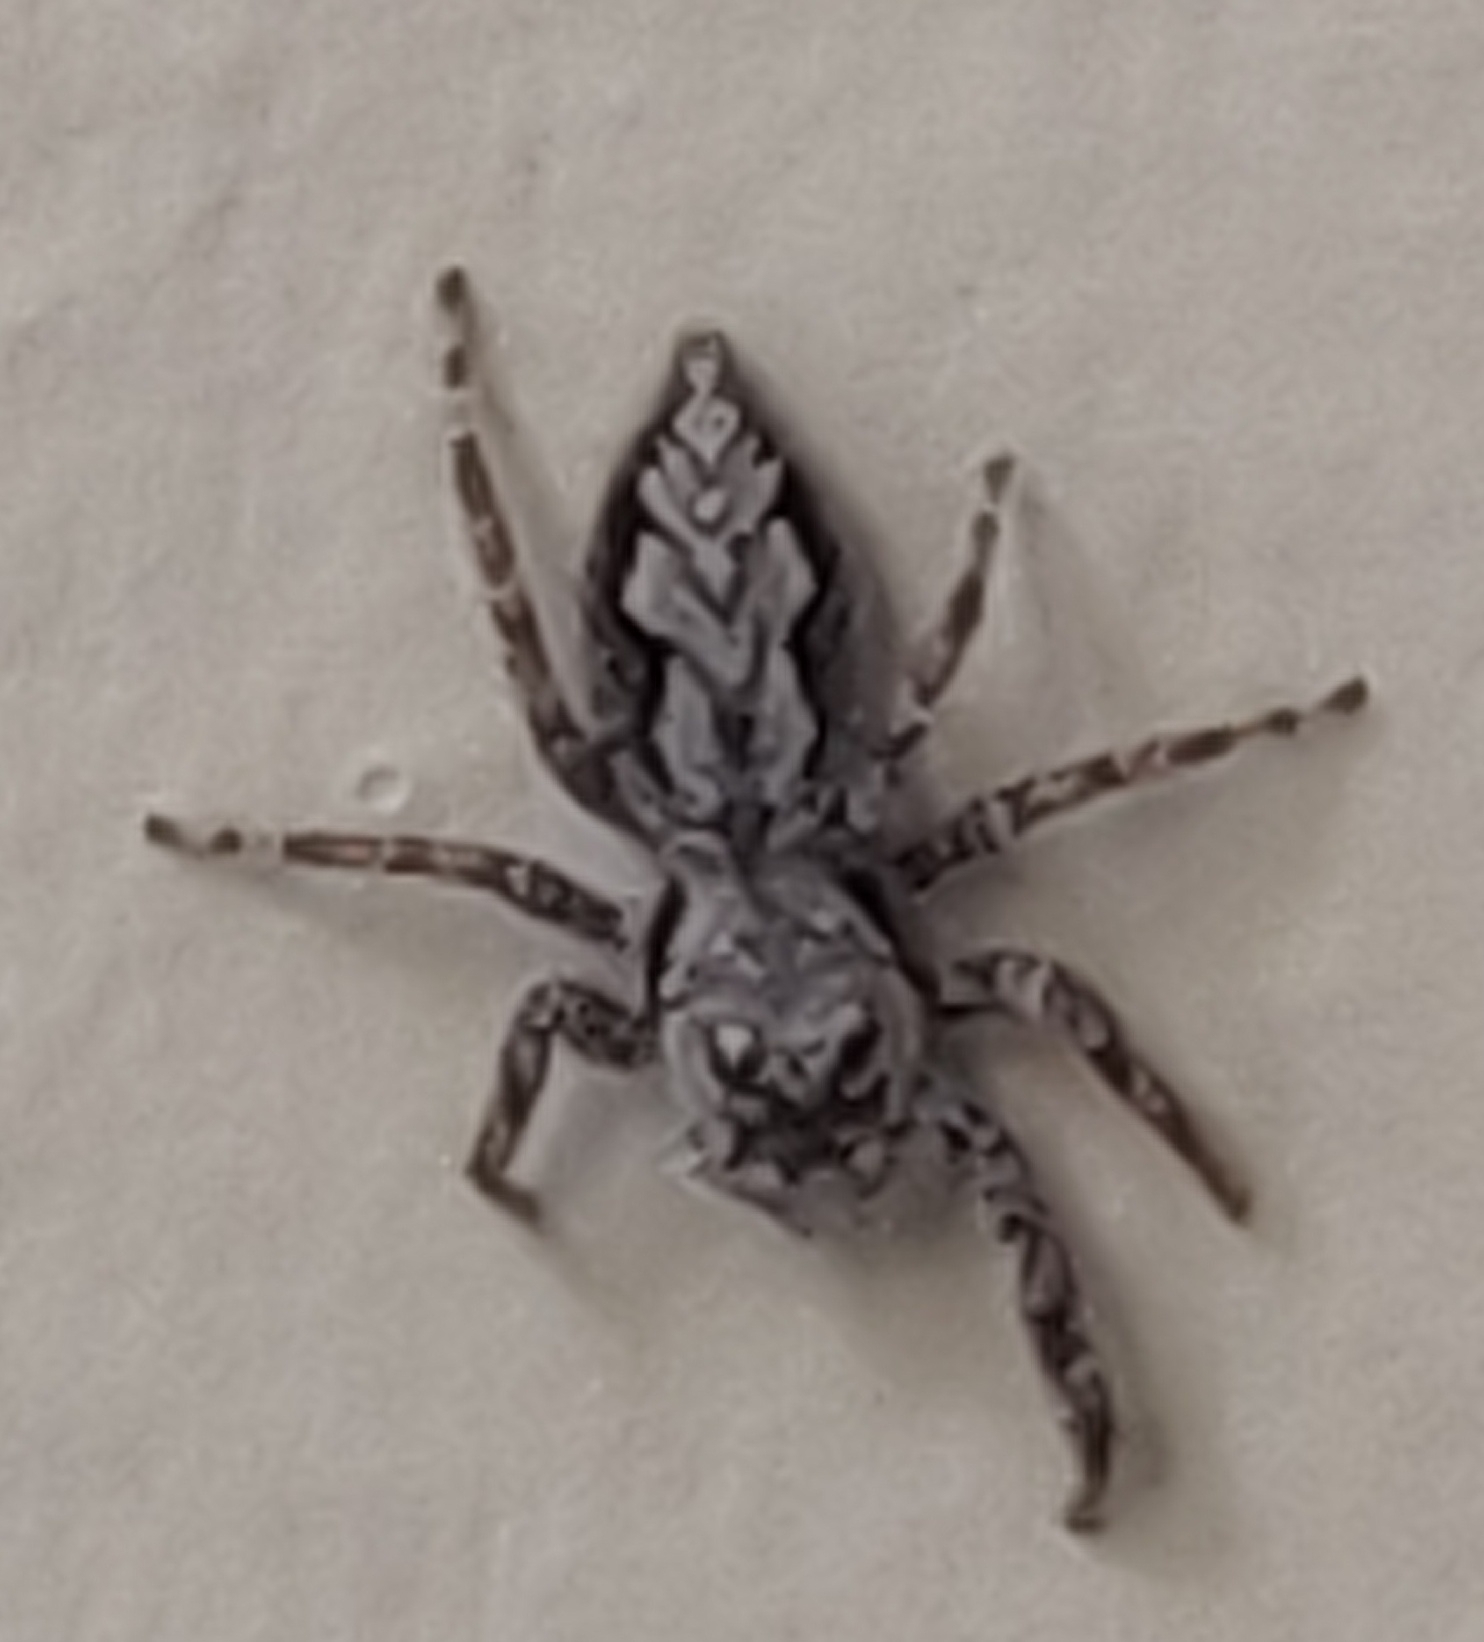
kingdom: Animalia
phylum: Arthropoda
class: Arachnida
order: Araneae
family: Salticidae
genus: Platycryptus
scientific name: Platycryptus undatus
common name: Tan jumping spider
